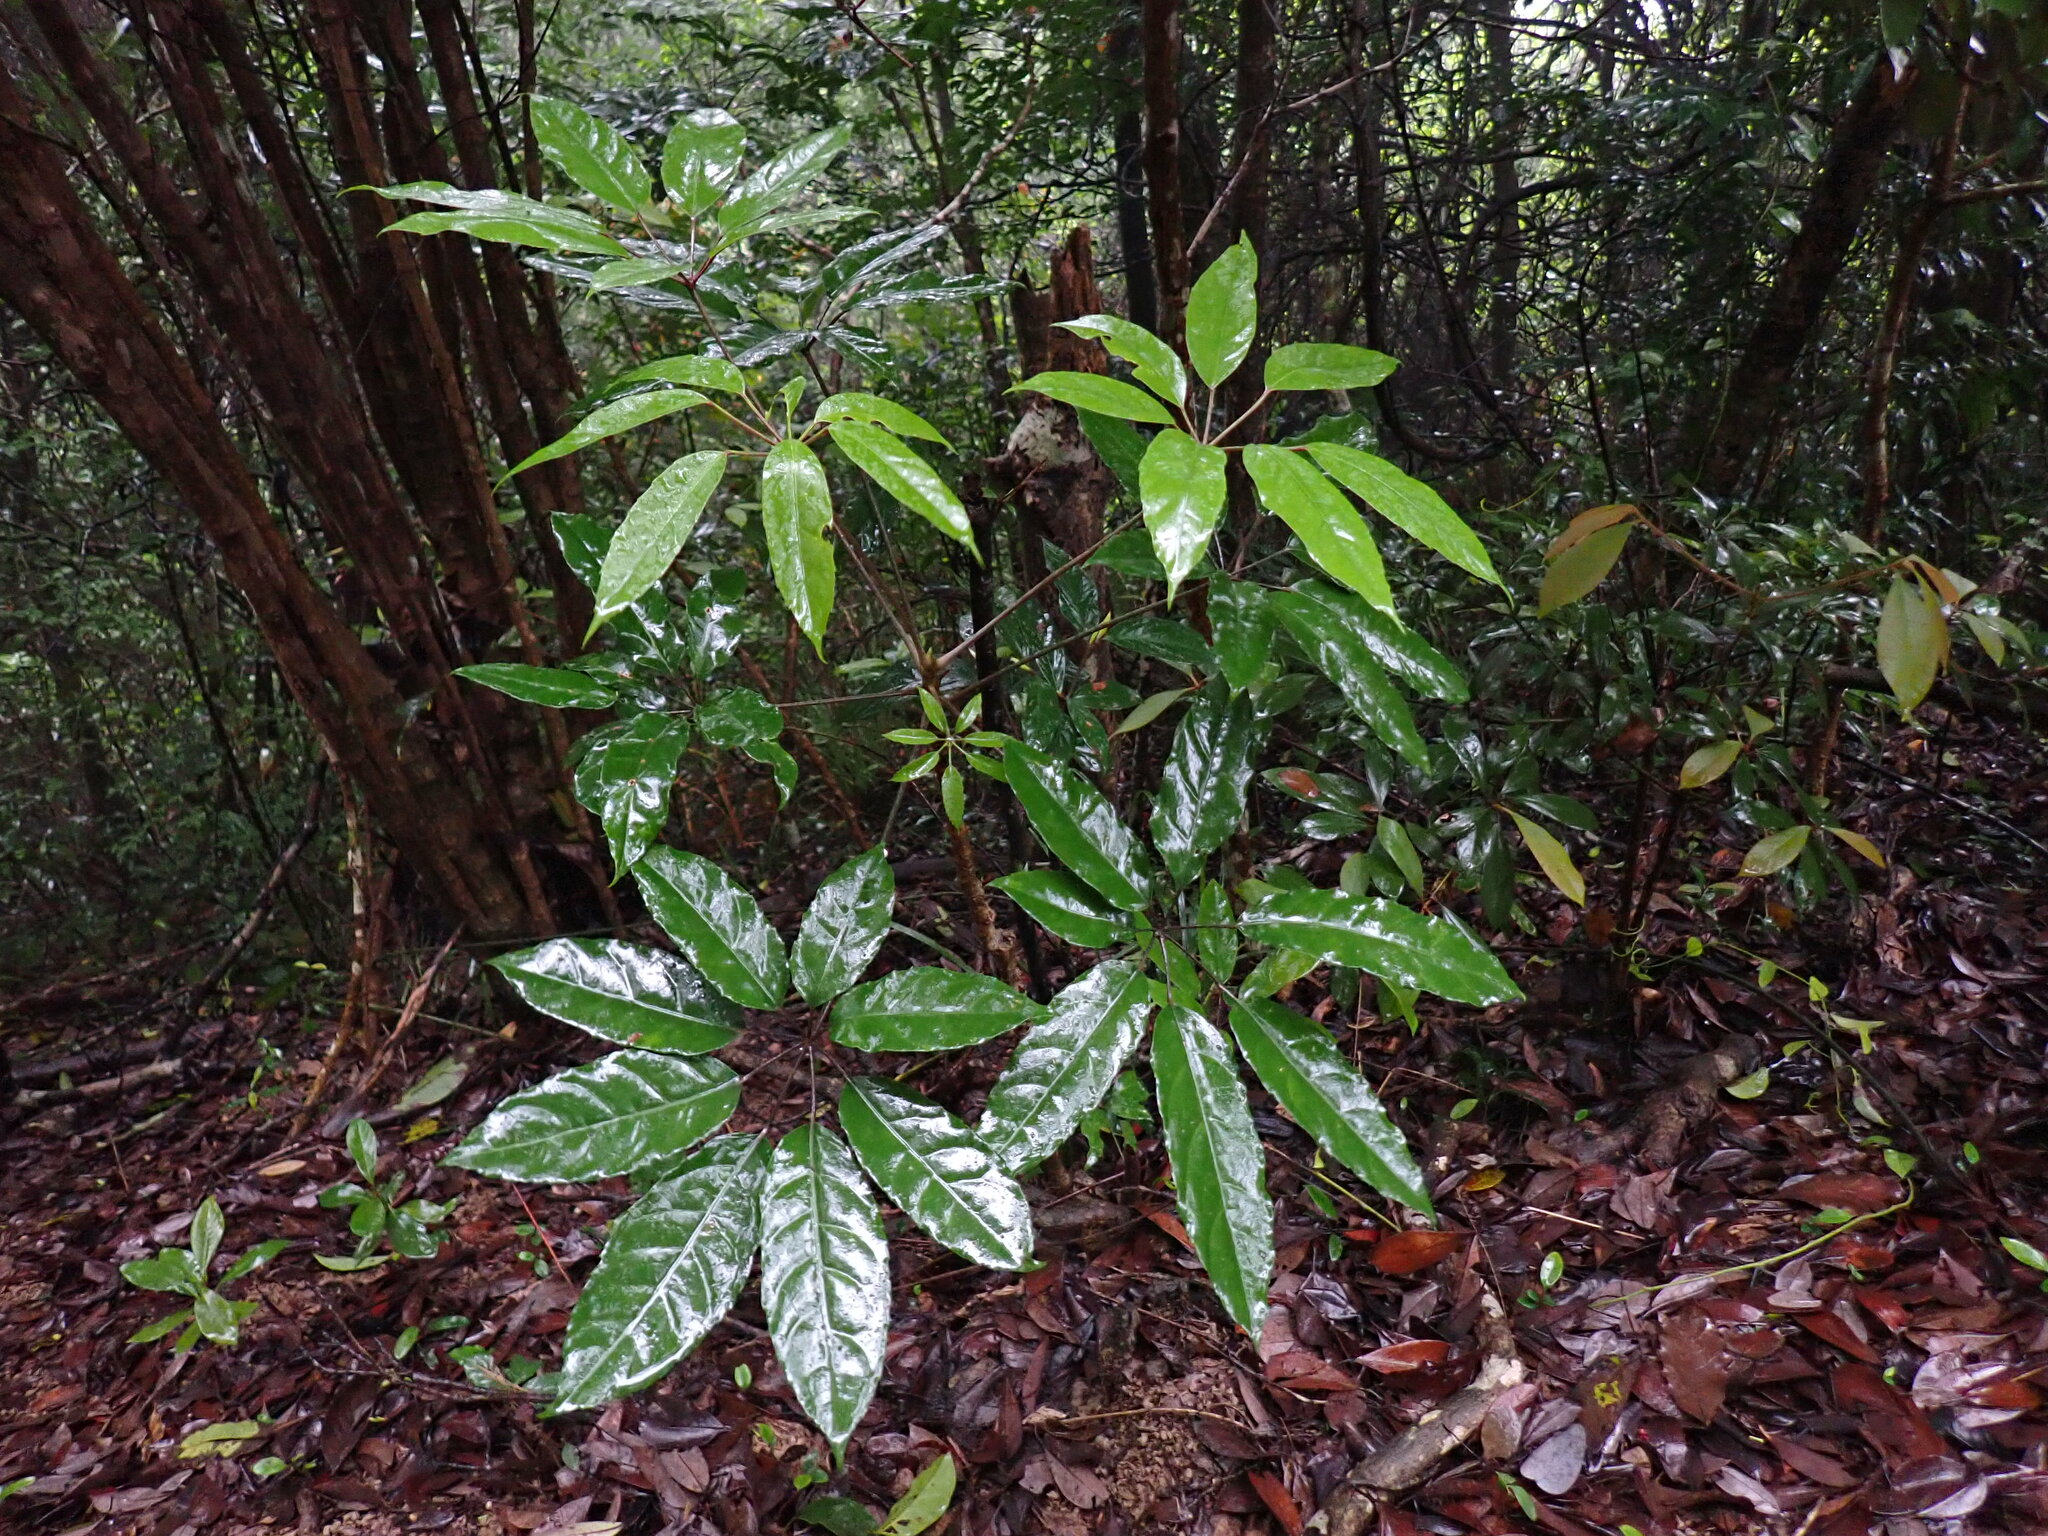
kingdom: Plantae
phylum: Tracheophyta
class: Magnoliopsida
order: Apiales
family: Araliaceae
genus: Heptapleurum
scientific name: Heptapleurum heptaphyllum
